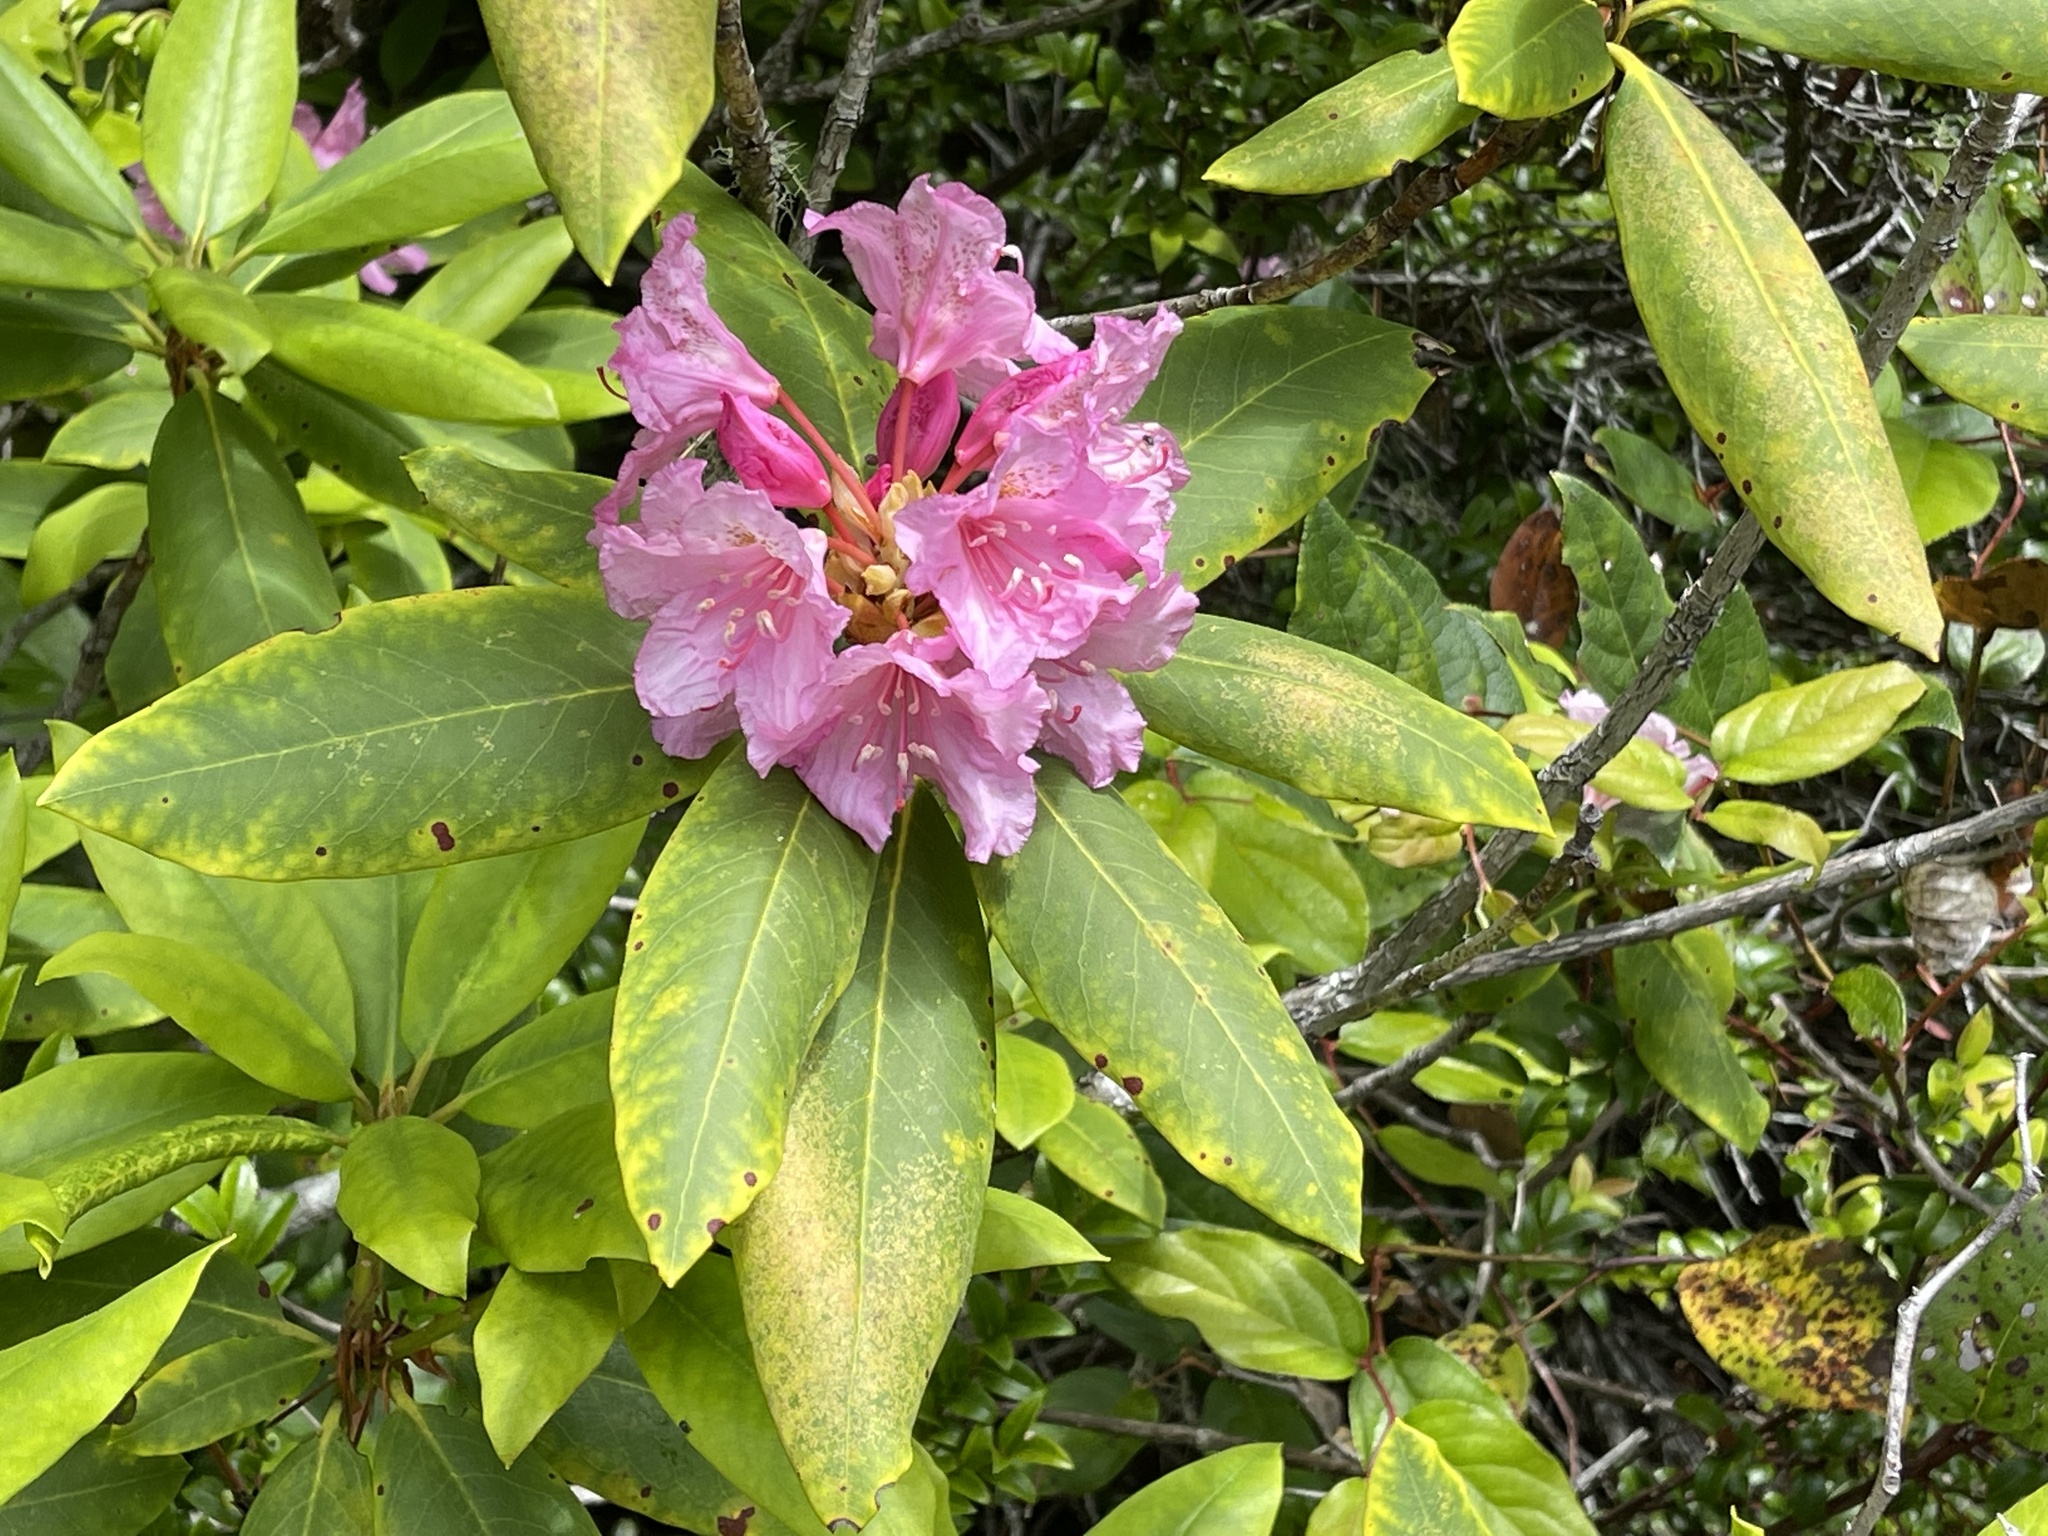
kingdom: Plantae
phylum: Tracheophyta
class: Magnoliopsida
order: Ericales
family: Ericaceae
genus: Rhododendron
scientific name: Rhododendron macrophyllum
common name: California rose bay
